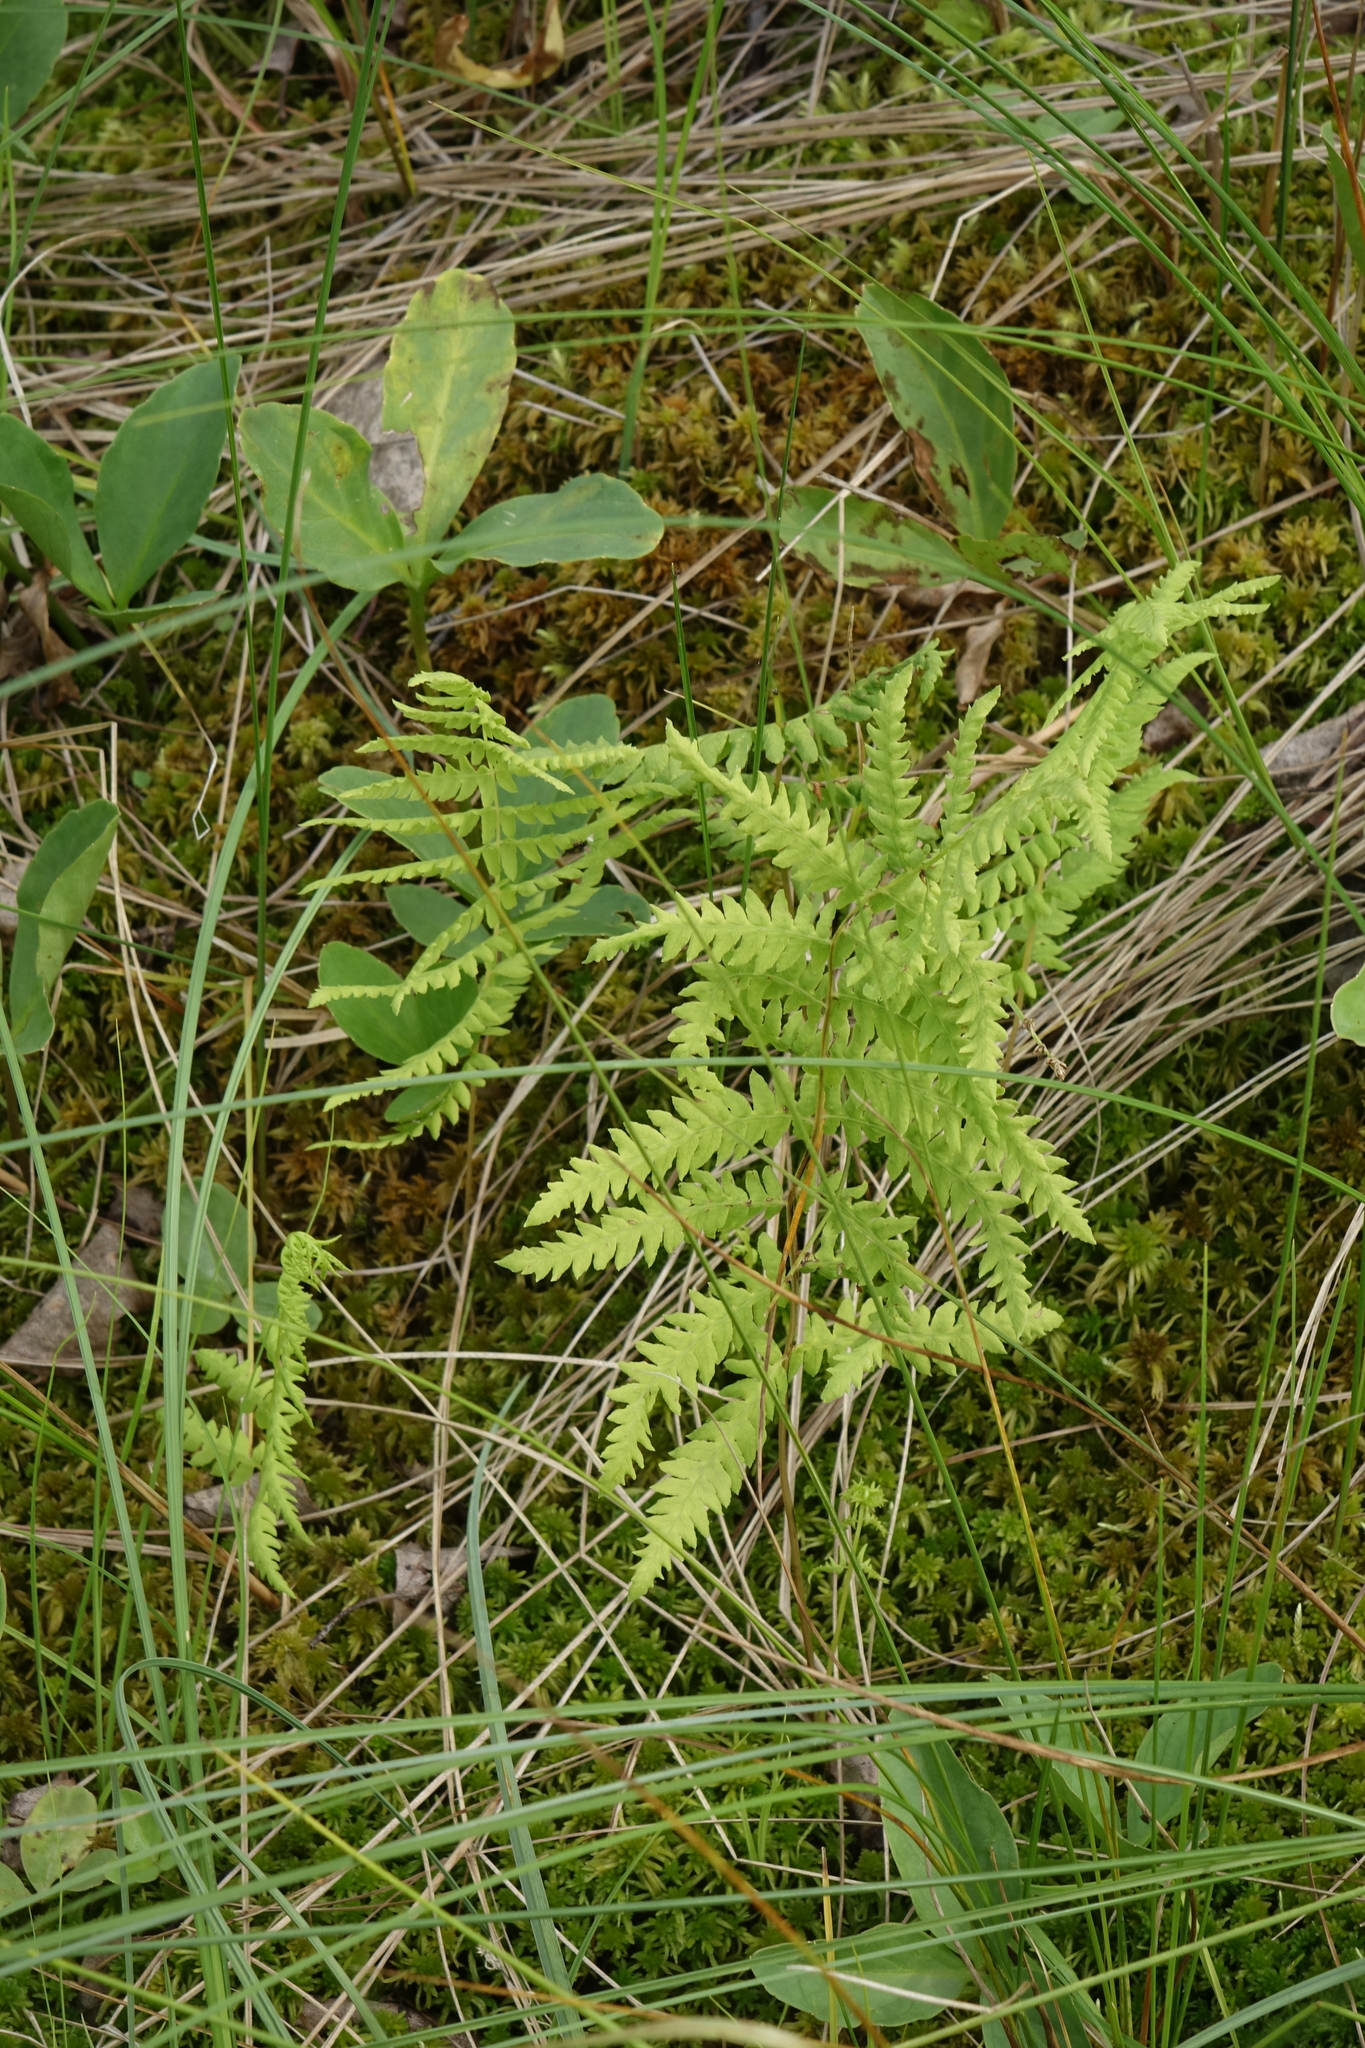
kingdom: Plantae
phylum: Tracheophyta
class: Polypodiopsida
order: Polypodiales
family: Thelypteridaceae
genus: Thelypteris
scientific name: Thelypteris palustris
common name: Marsh fern
